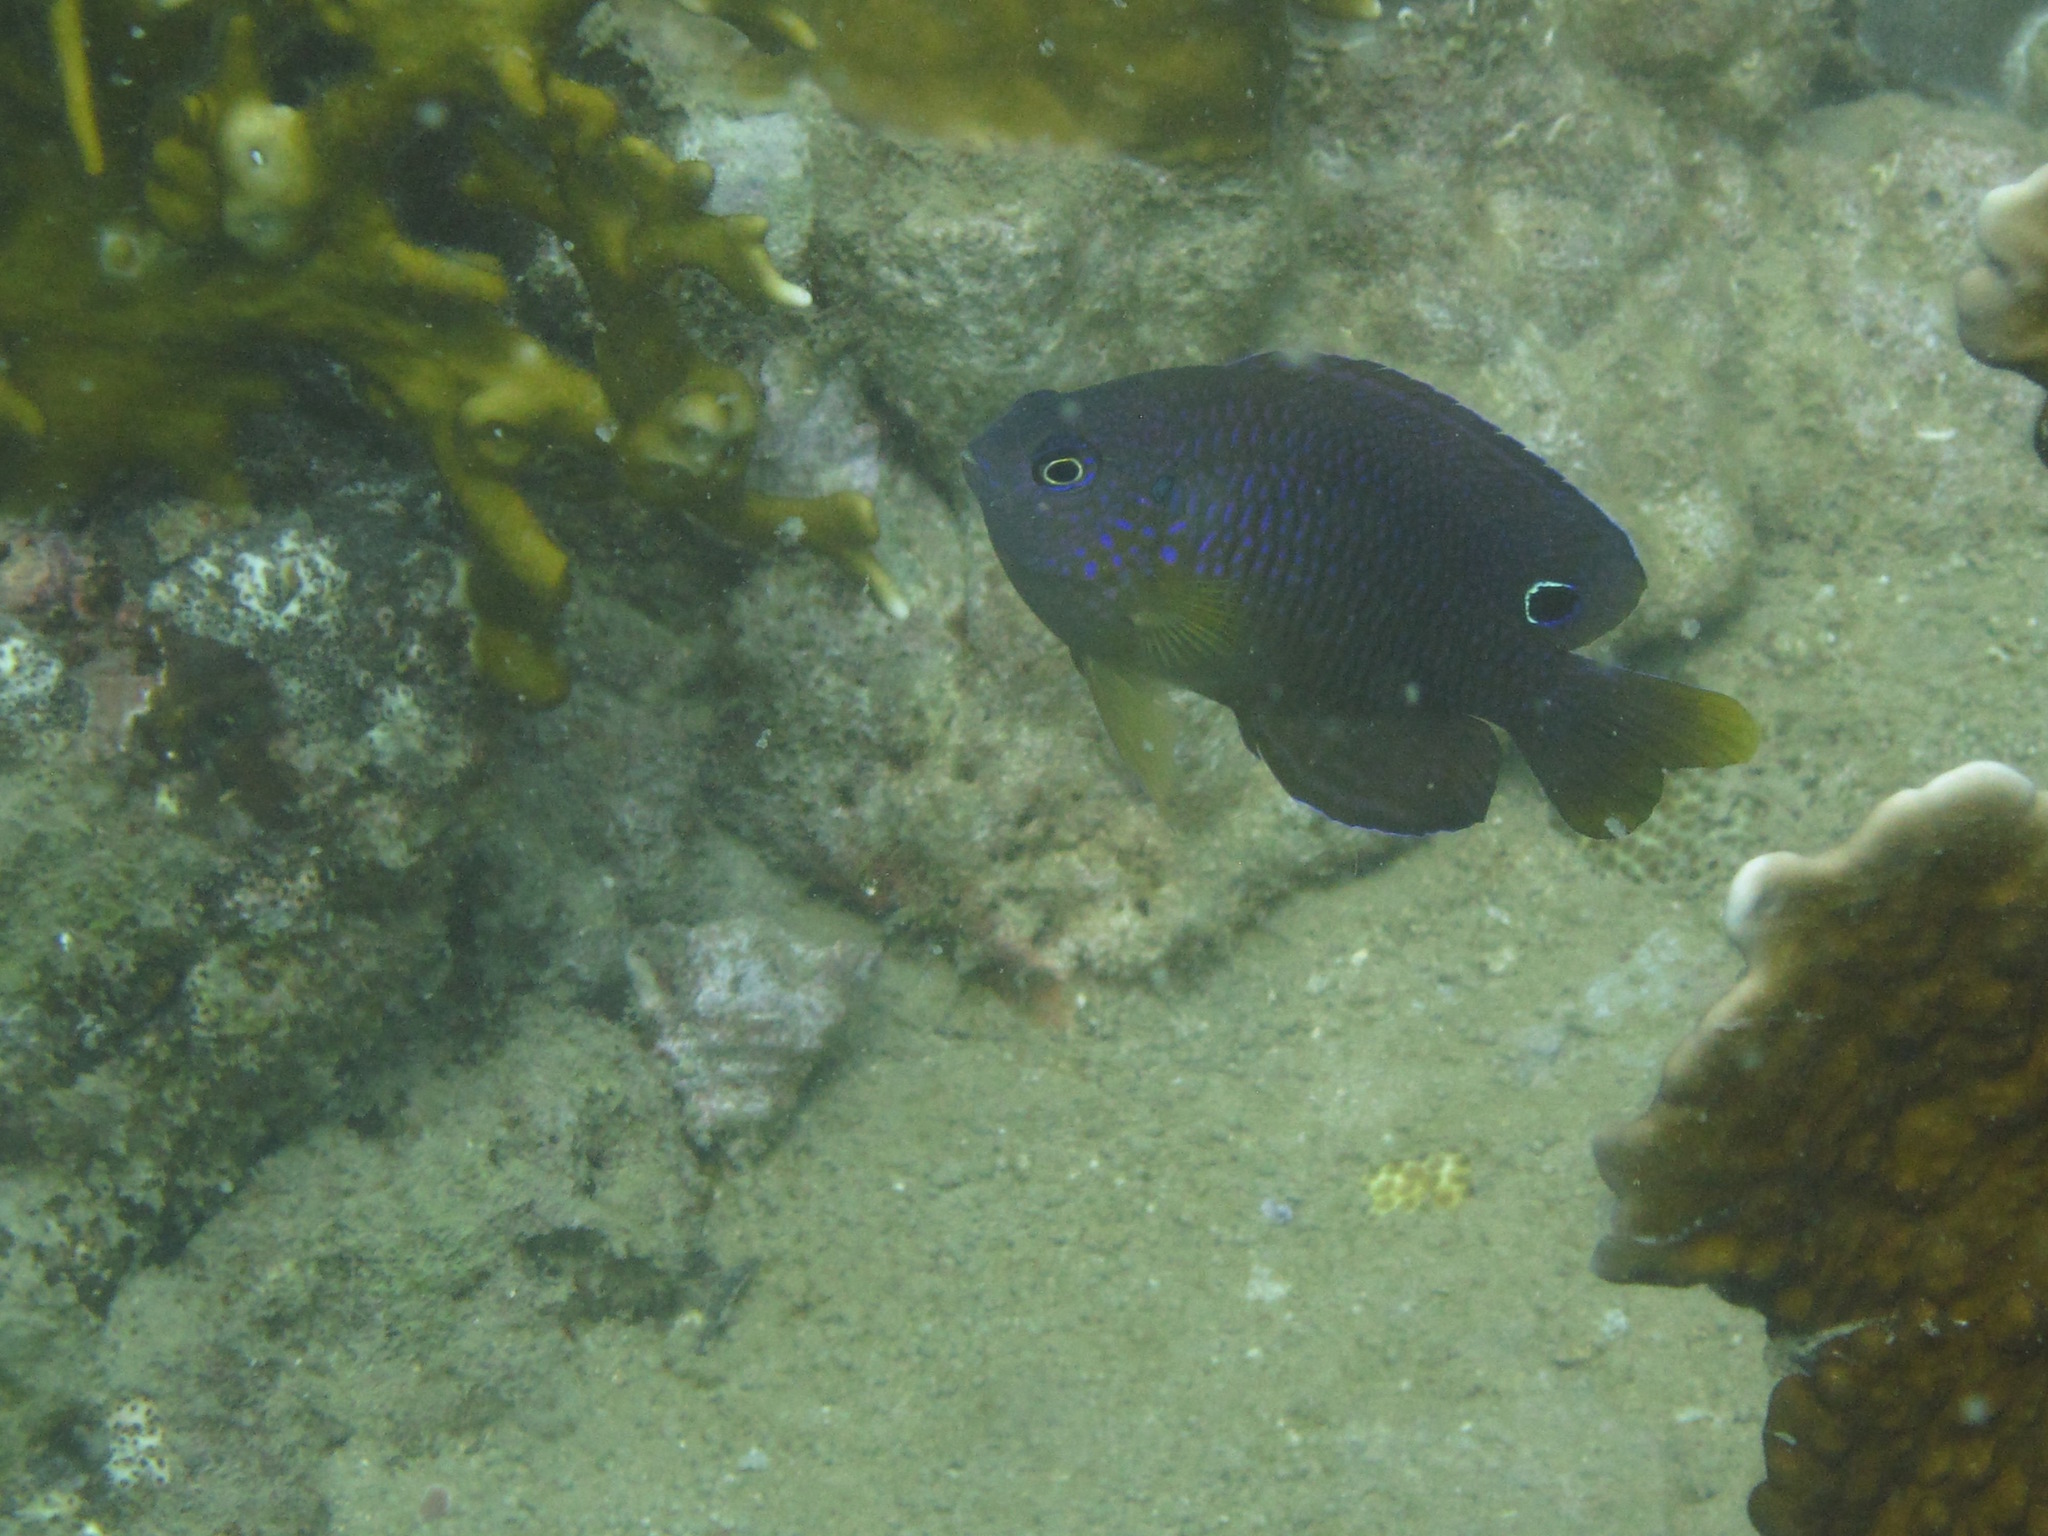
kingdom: Animalia
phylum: Chordata
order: Perciformes
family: Pomacentridae
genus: Pomacentrus
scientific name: Pomacentrus vaiuli
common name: Princess damsel
